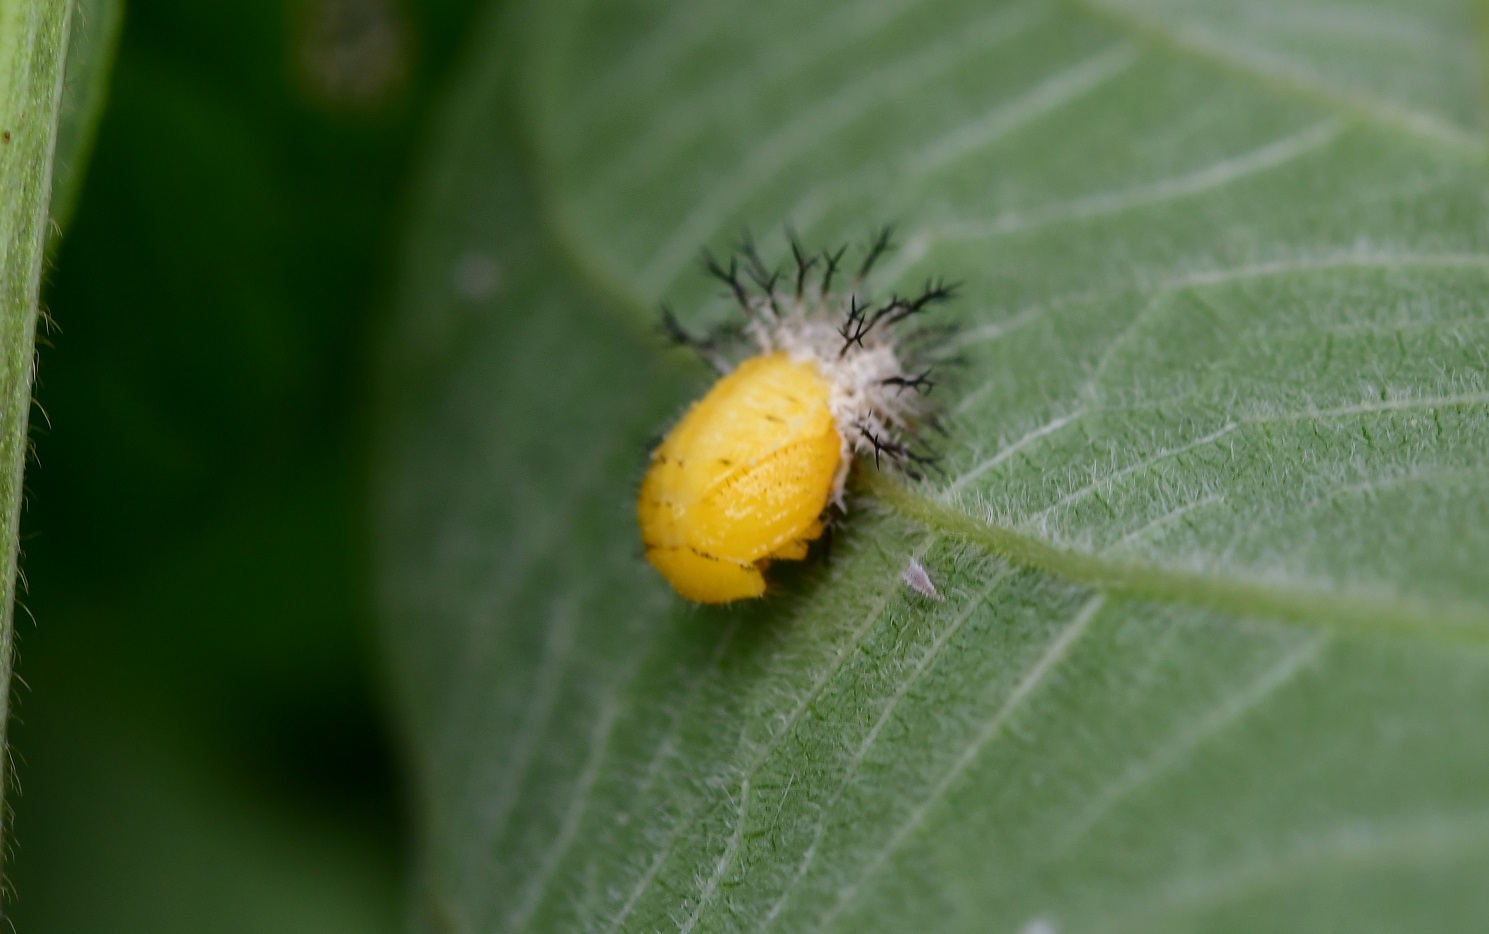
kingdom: Animalia
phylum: Arthropoda
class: Insecta
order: Coleoptera
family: Coccinellidae
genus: Epilachna
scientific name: Epilachna varivestis
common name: Ladybird beetle
